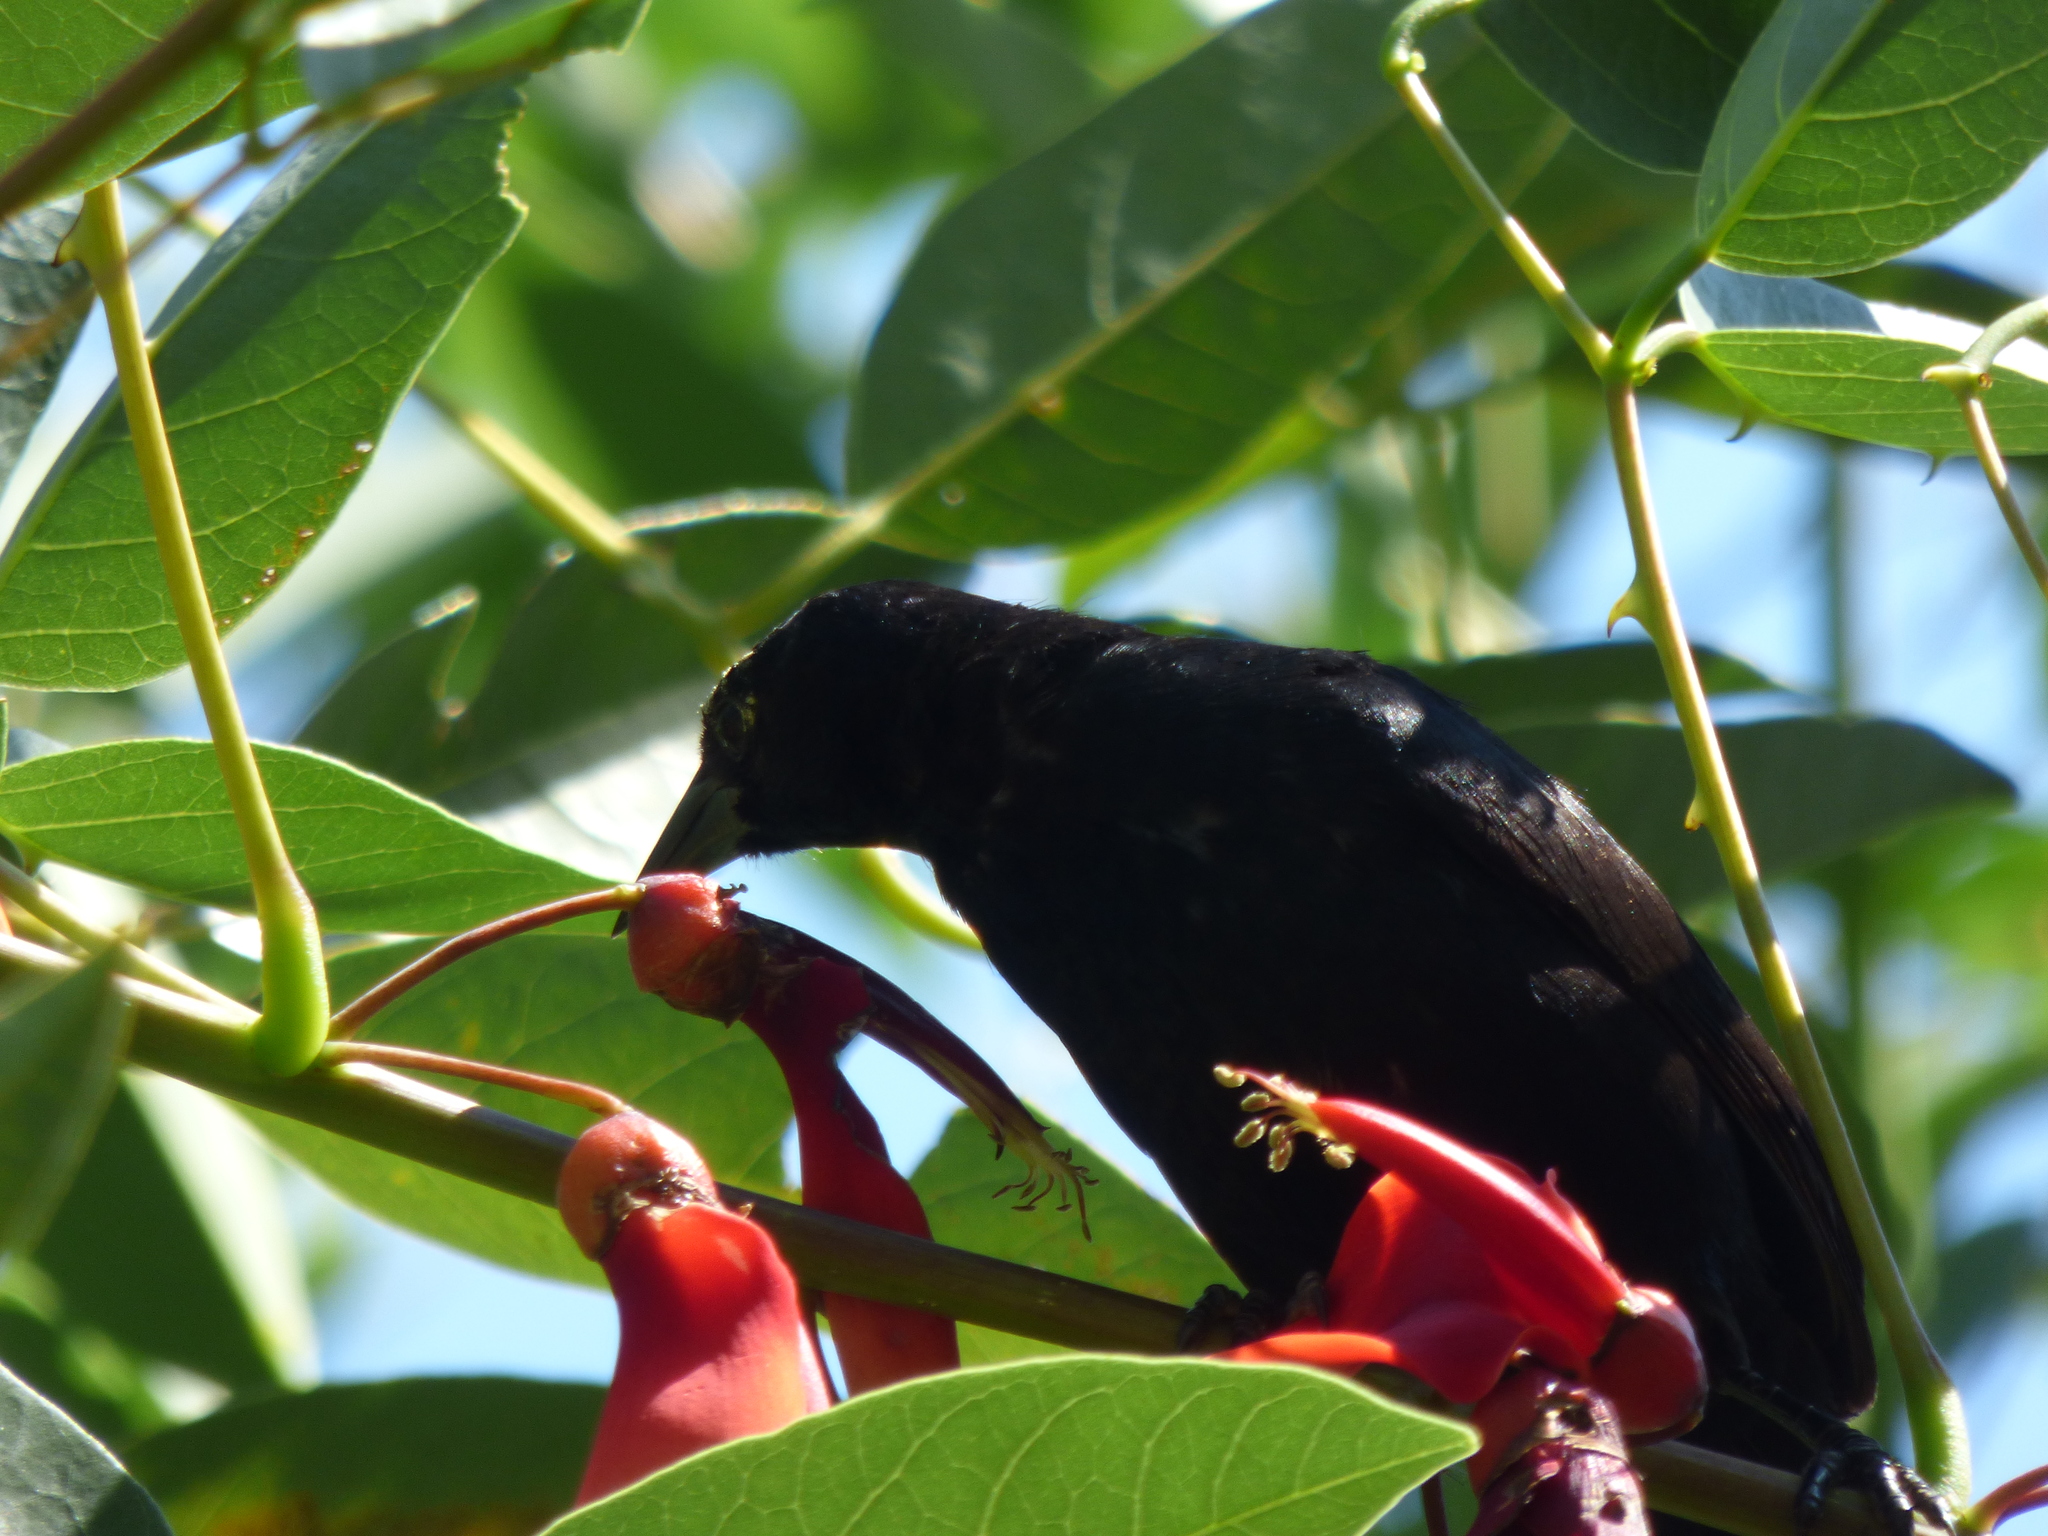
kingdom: Animalia
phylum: Chordata
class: Aves
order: Passeriformes
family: Icteridae
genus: Agelasticus
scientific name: Agelasticus cyanopus
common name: Unicolored blackbird
